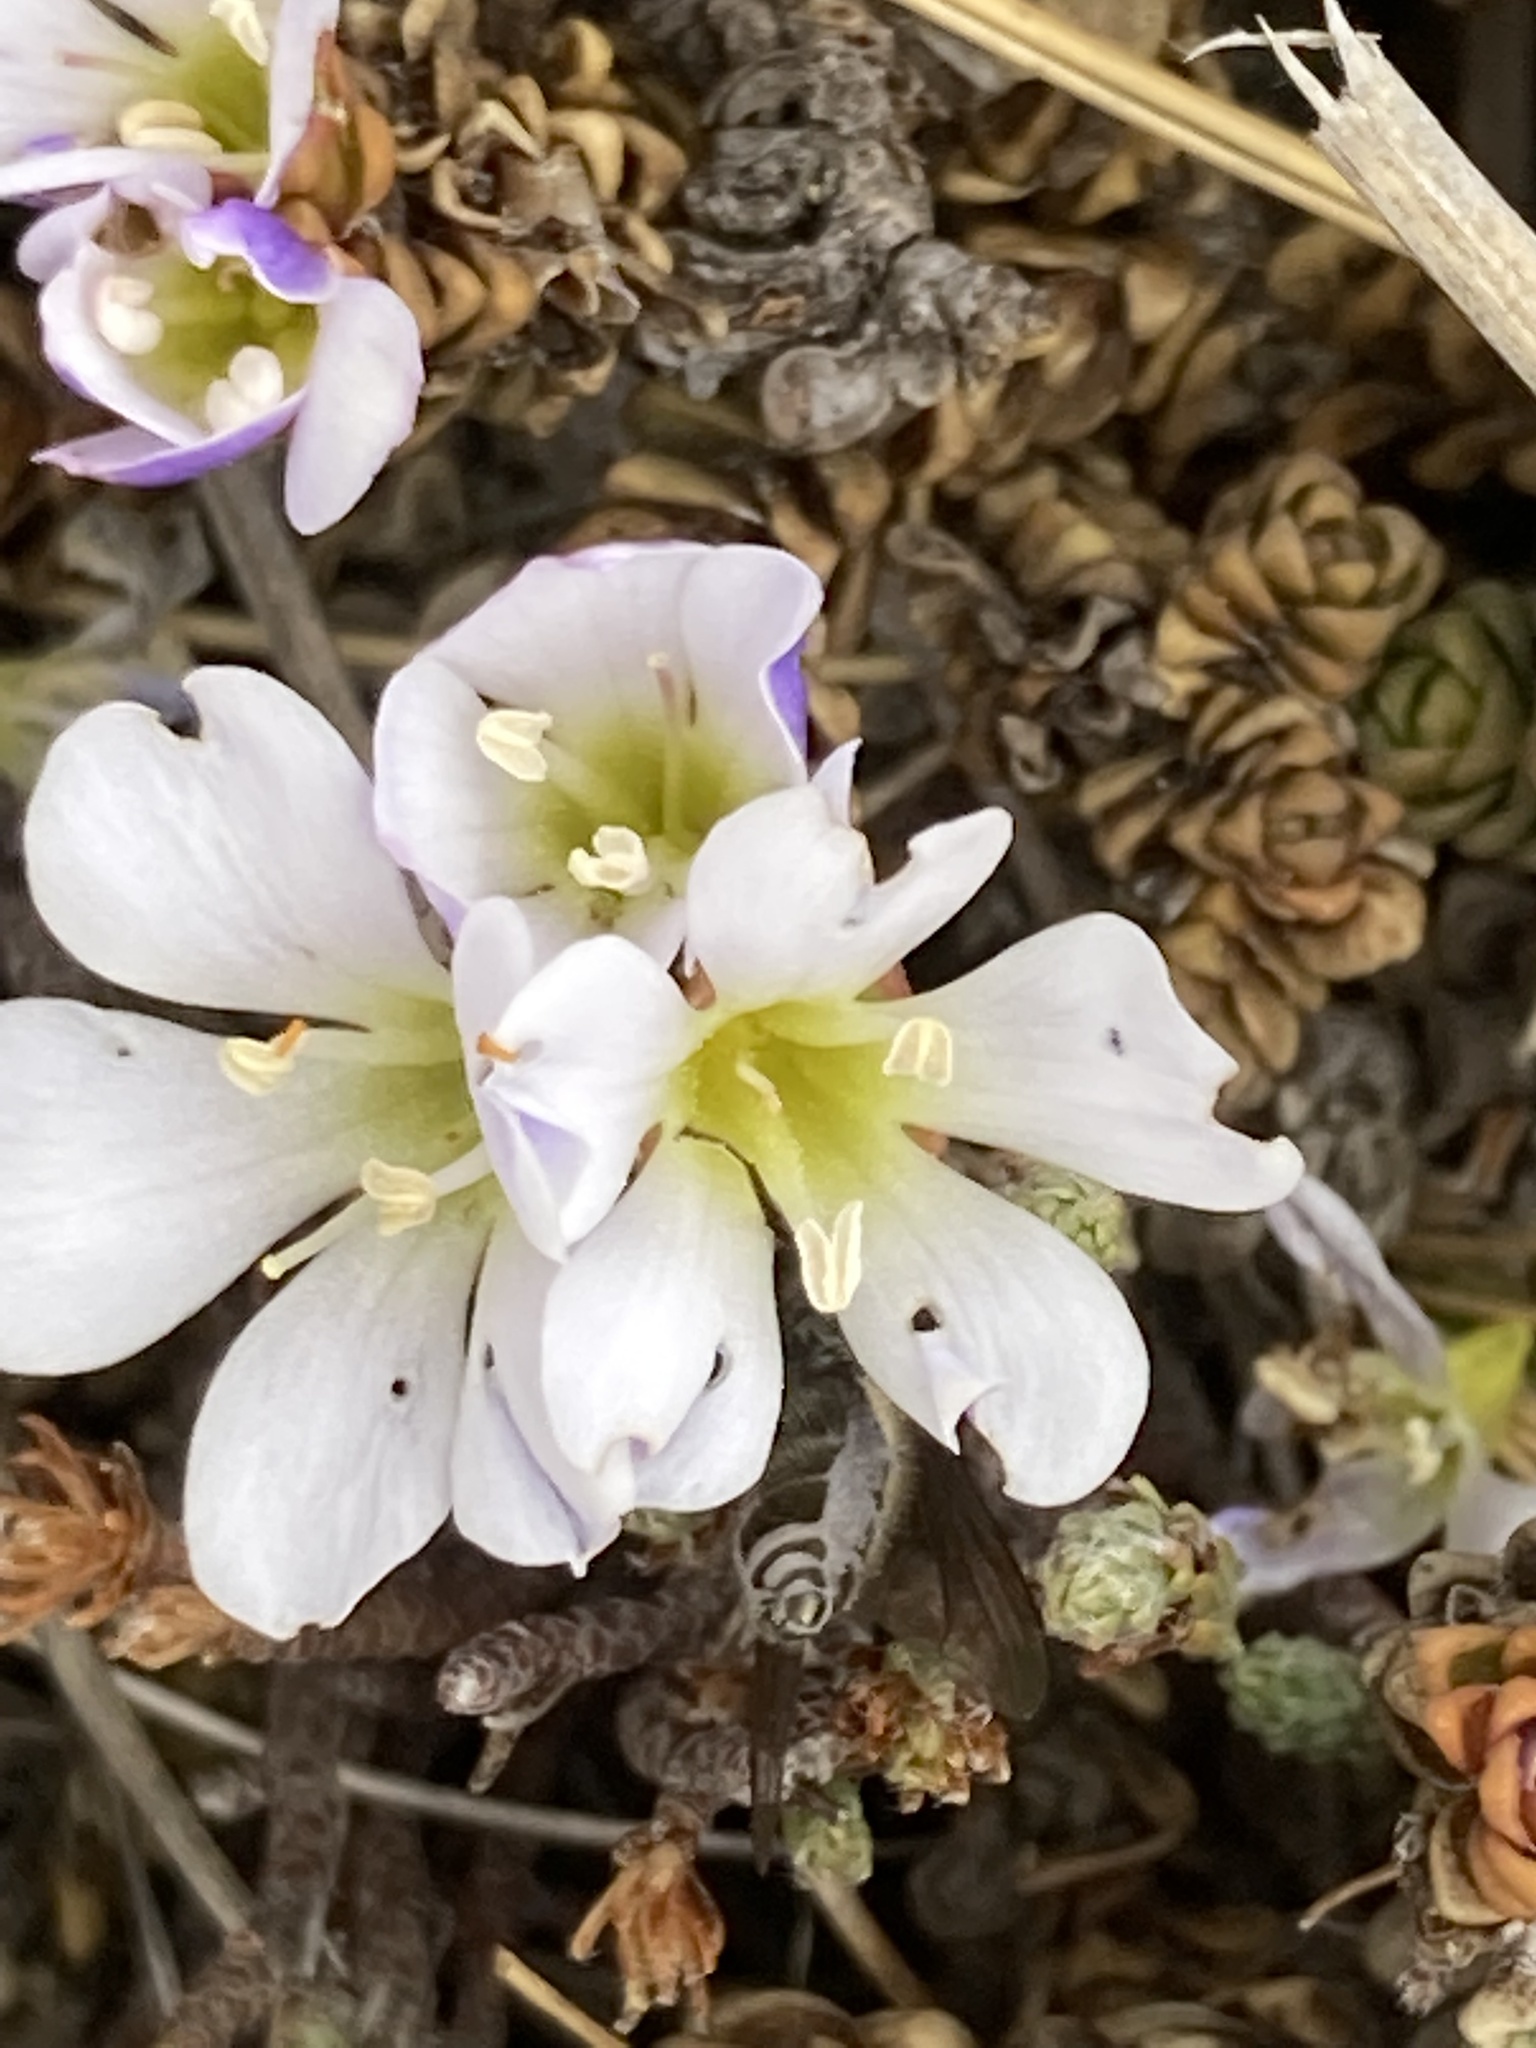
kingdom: Plantae
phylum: Tracheophyta
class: Magnoliopsida
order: Lamiales
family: Plantaginaceae
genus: Veronica
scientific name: Veronica densifolia
